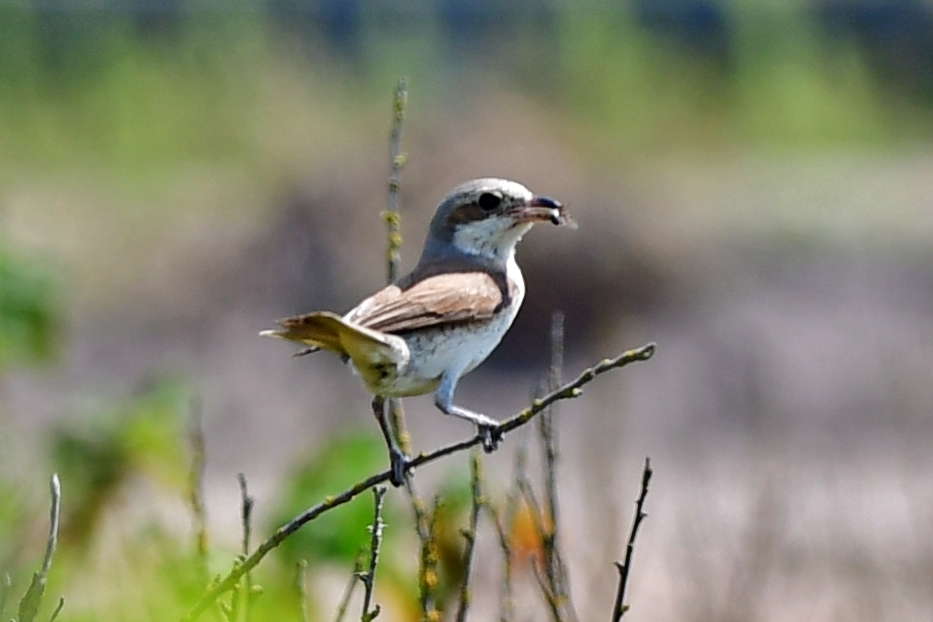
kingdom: Animalia
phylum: Chordata
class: Aves
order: Passeriformes
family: Laniidae
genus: Lanius
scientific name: Lanius collurio
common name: Red-backed shrike
